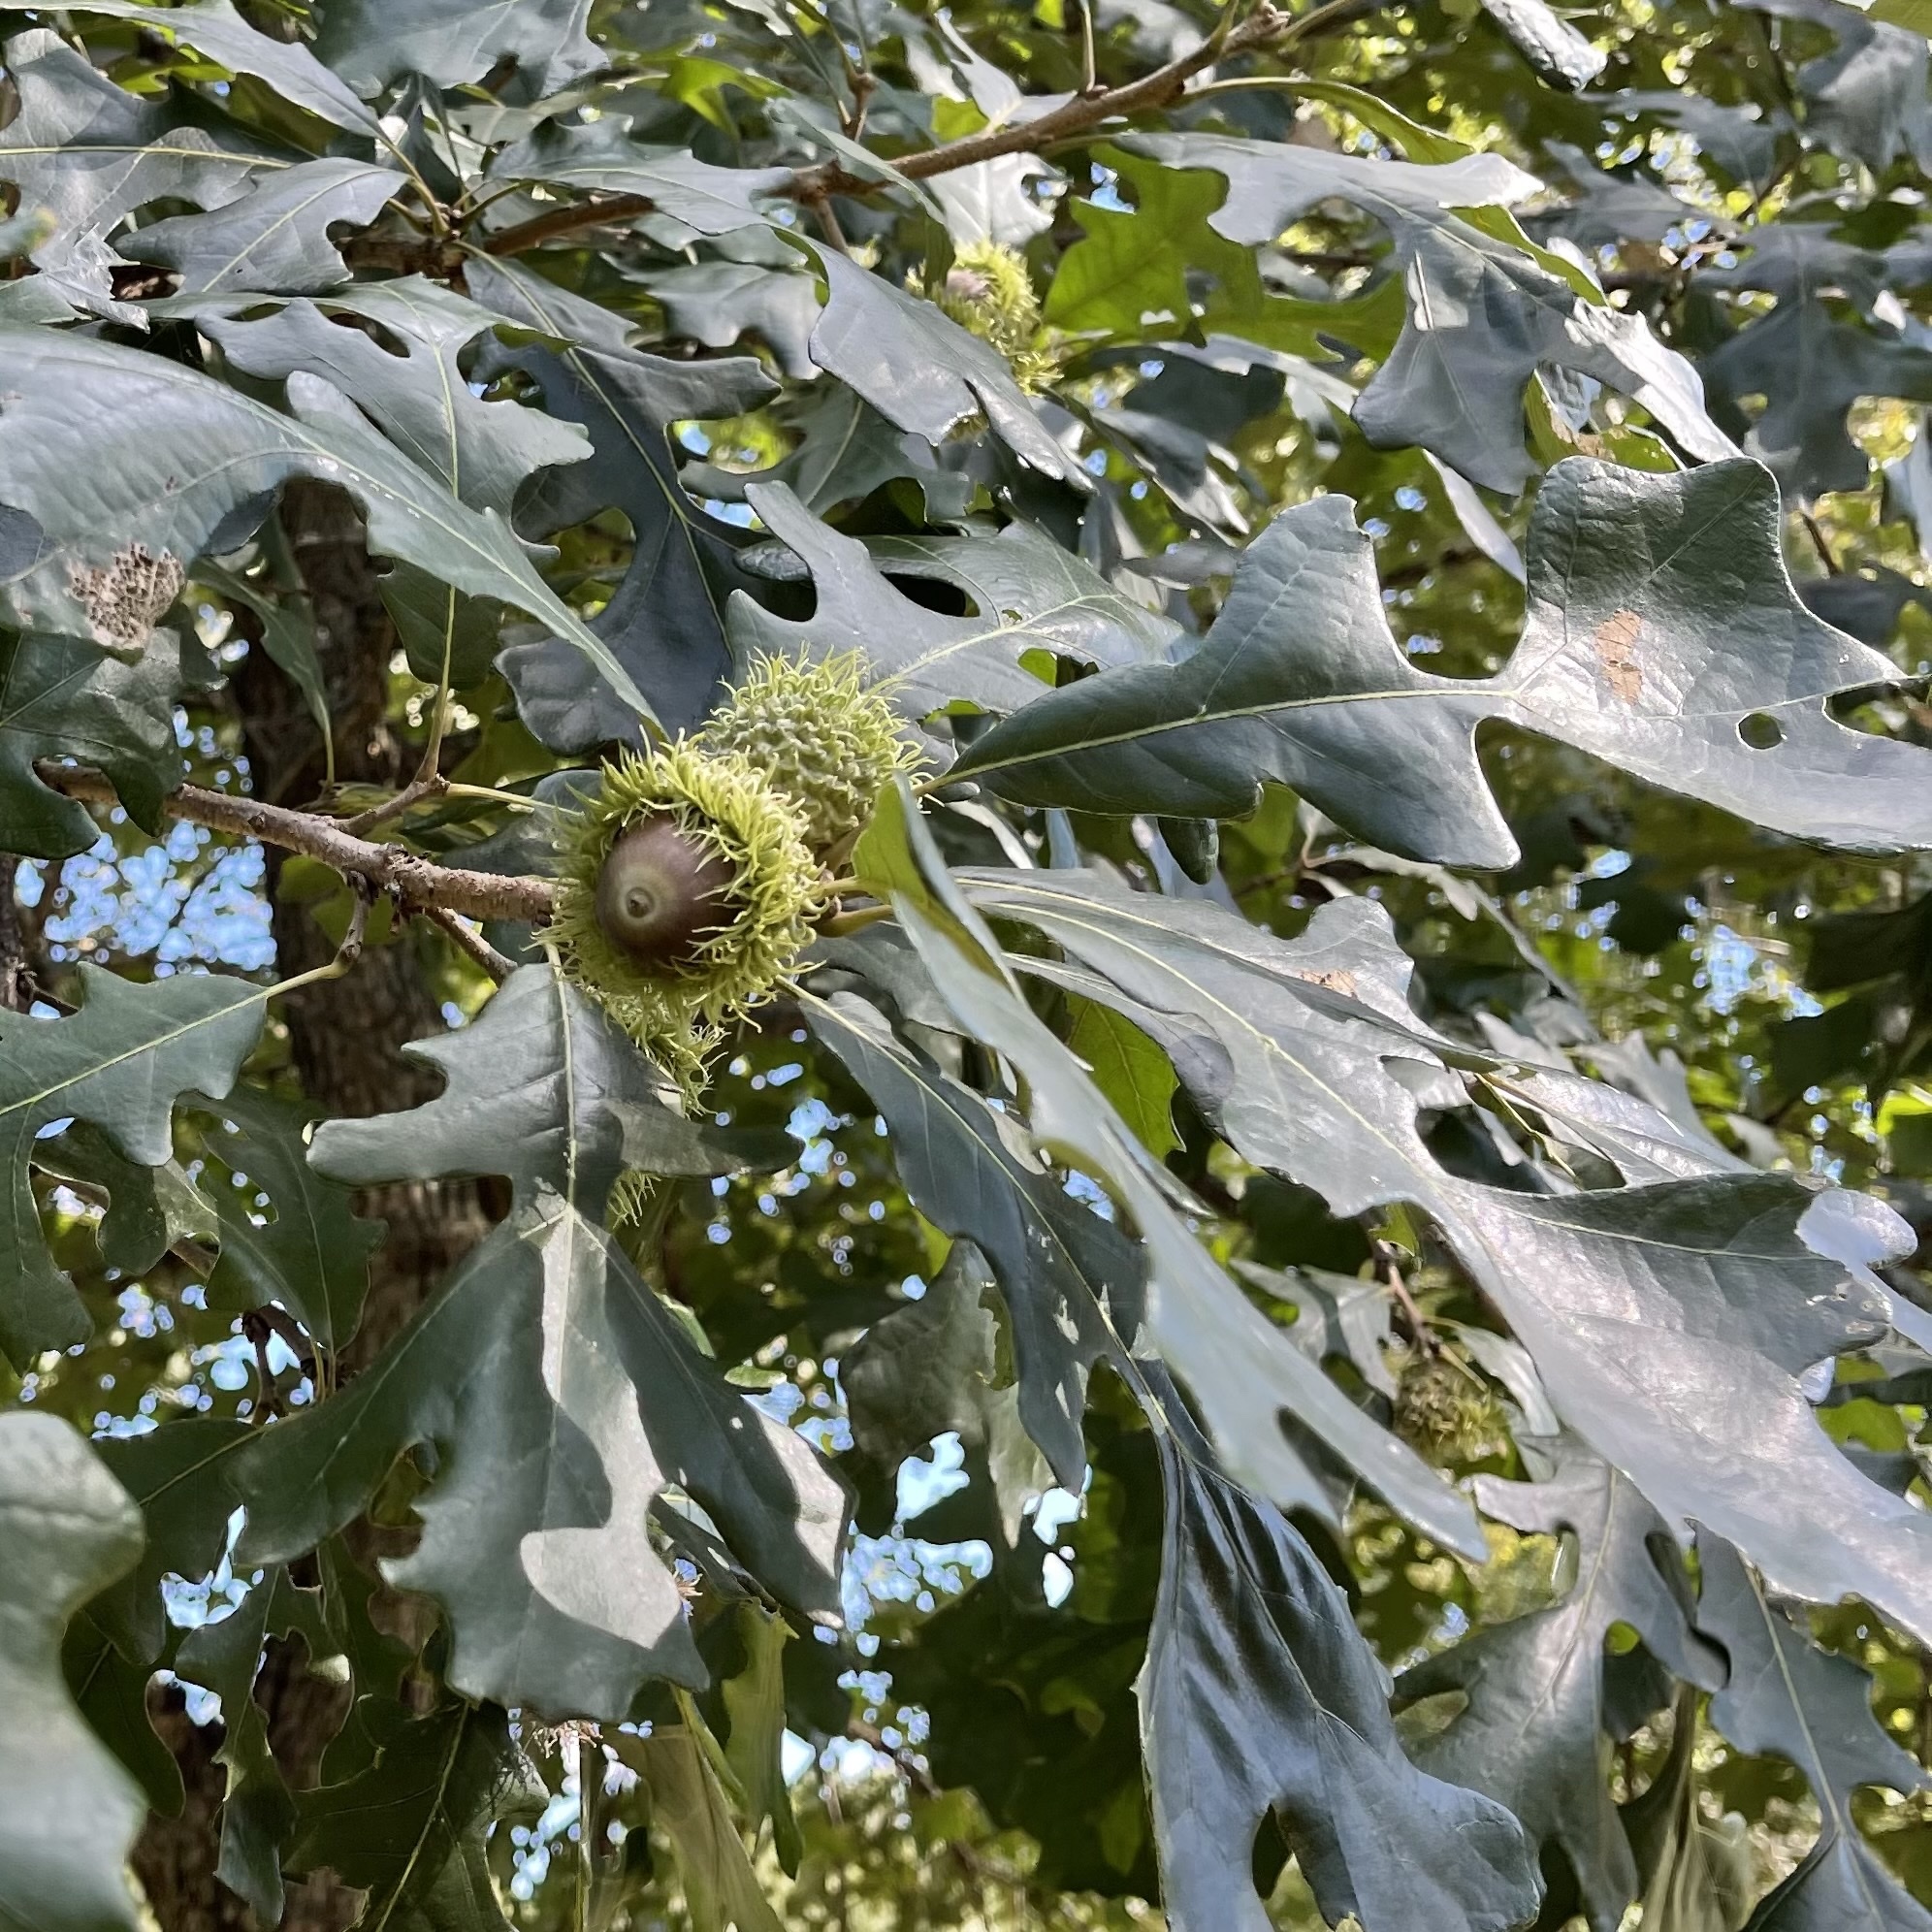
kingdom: Plantae
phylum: Tracheophyta
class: Magnoliopsida
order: Fagales
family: Fagaceae
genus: Quercus
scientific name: Quercus macrocarpa
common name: Bur oak
